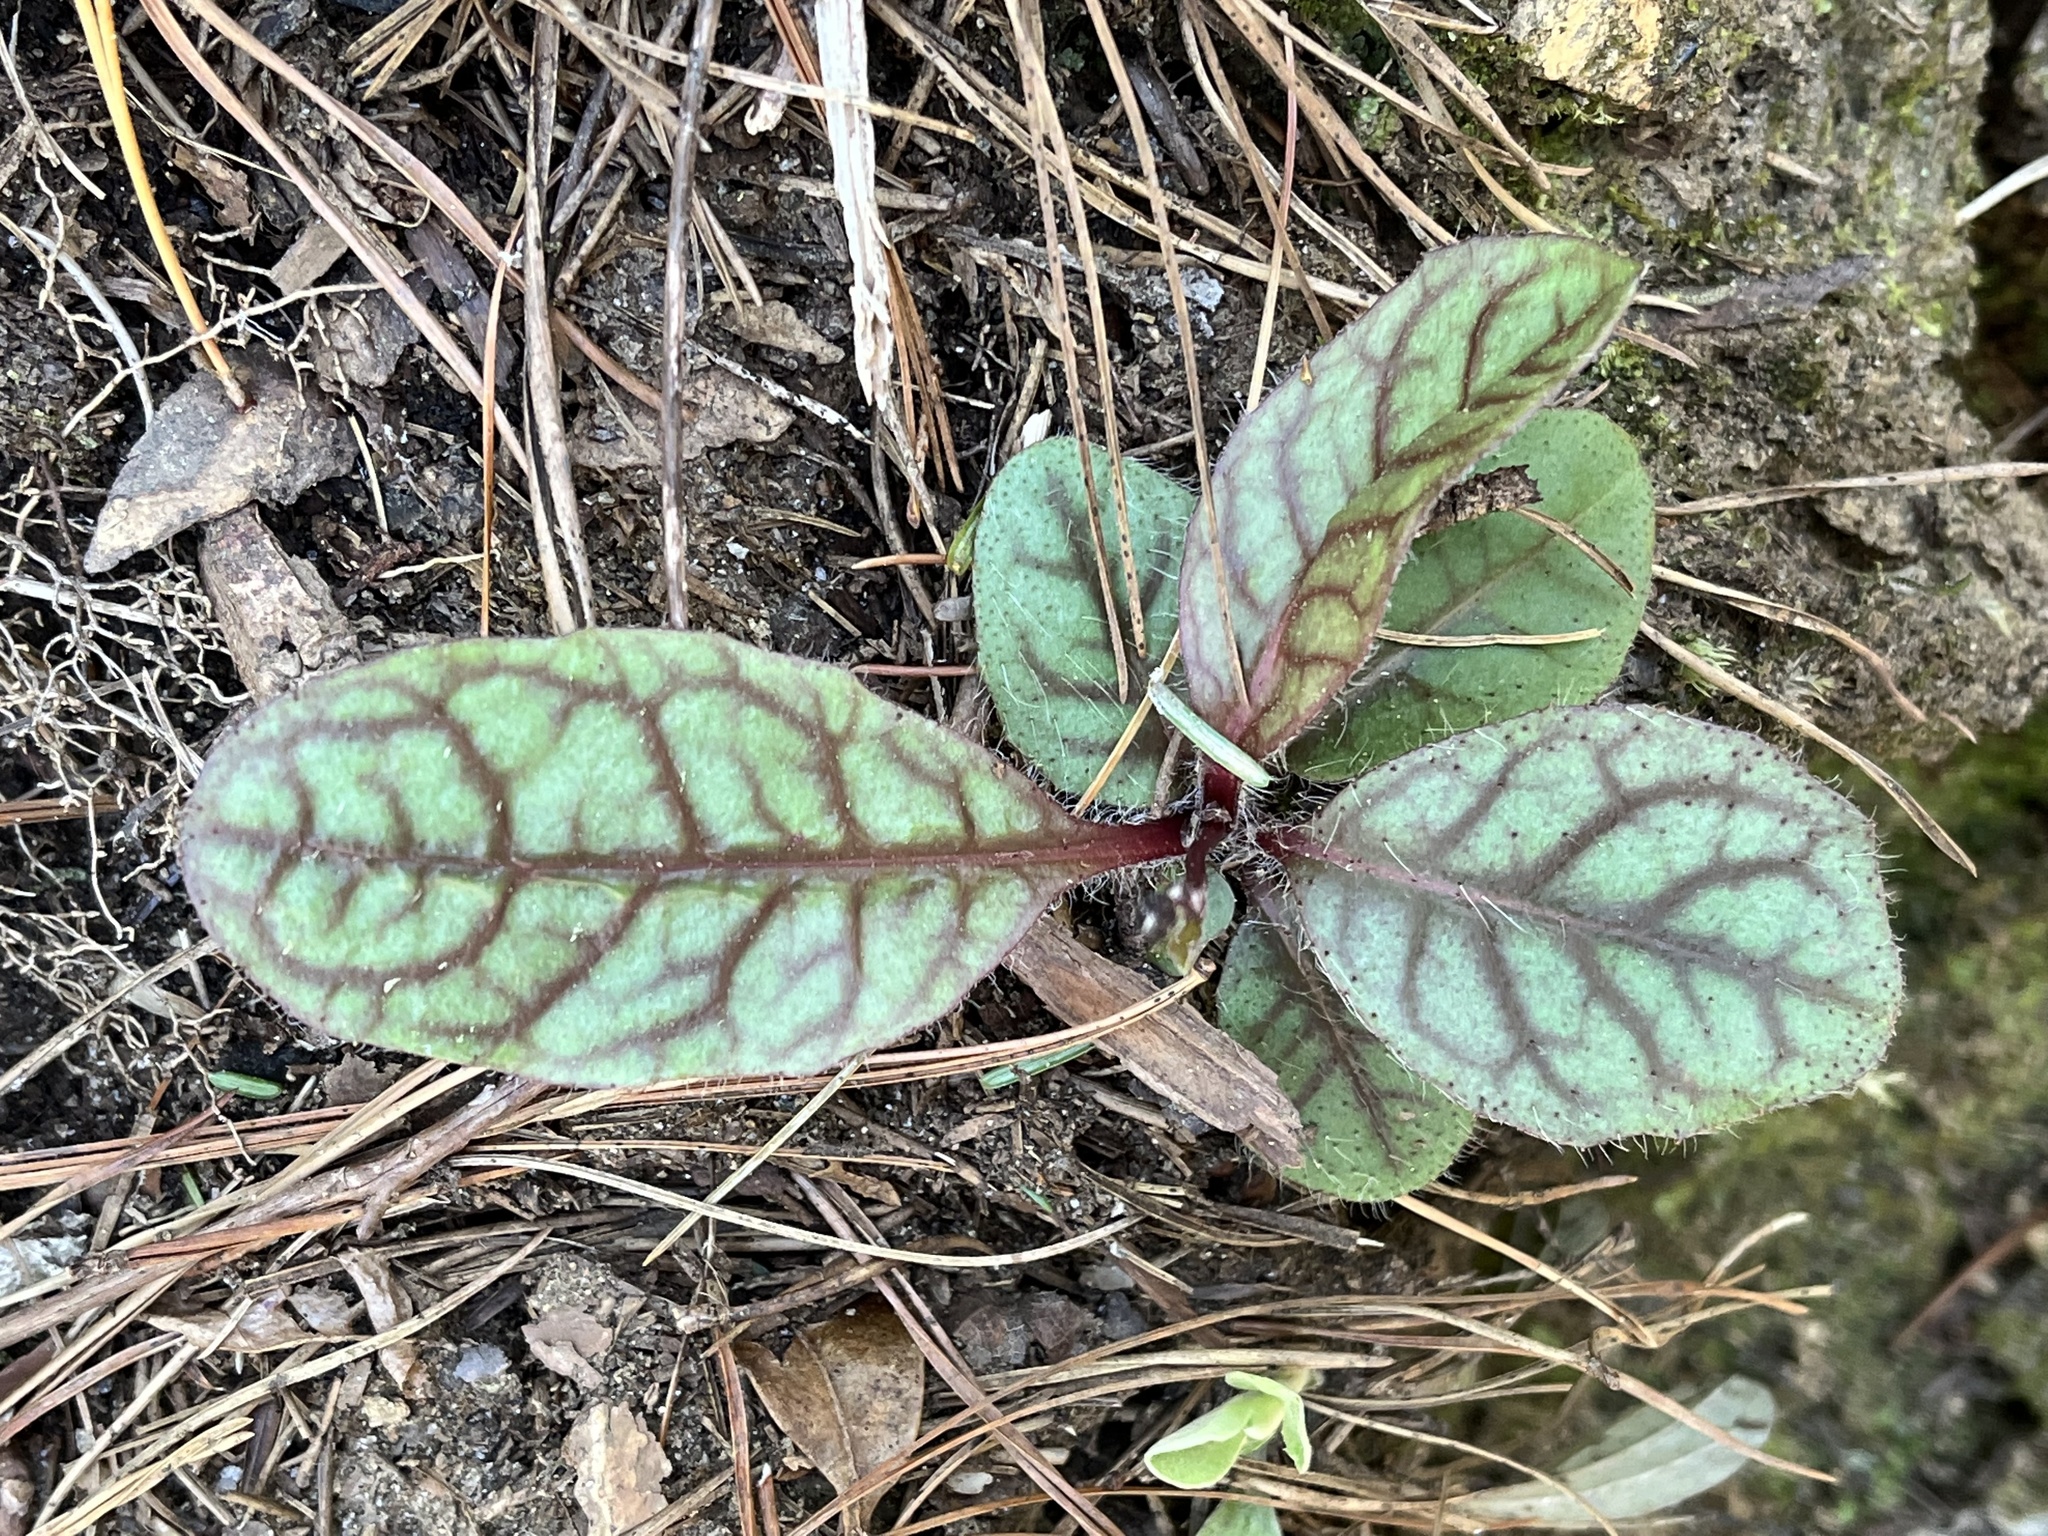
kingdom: Plantae
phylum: Tracheophyta
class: Magnoliopsida
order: Asterales
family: Asteraceae
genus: Hieracium
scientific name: Hieracium venosum
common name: Rattlesnake hawkweed
